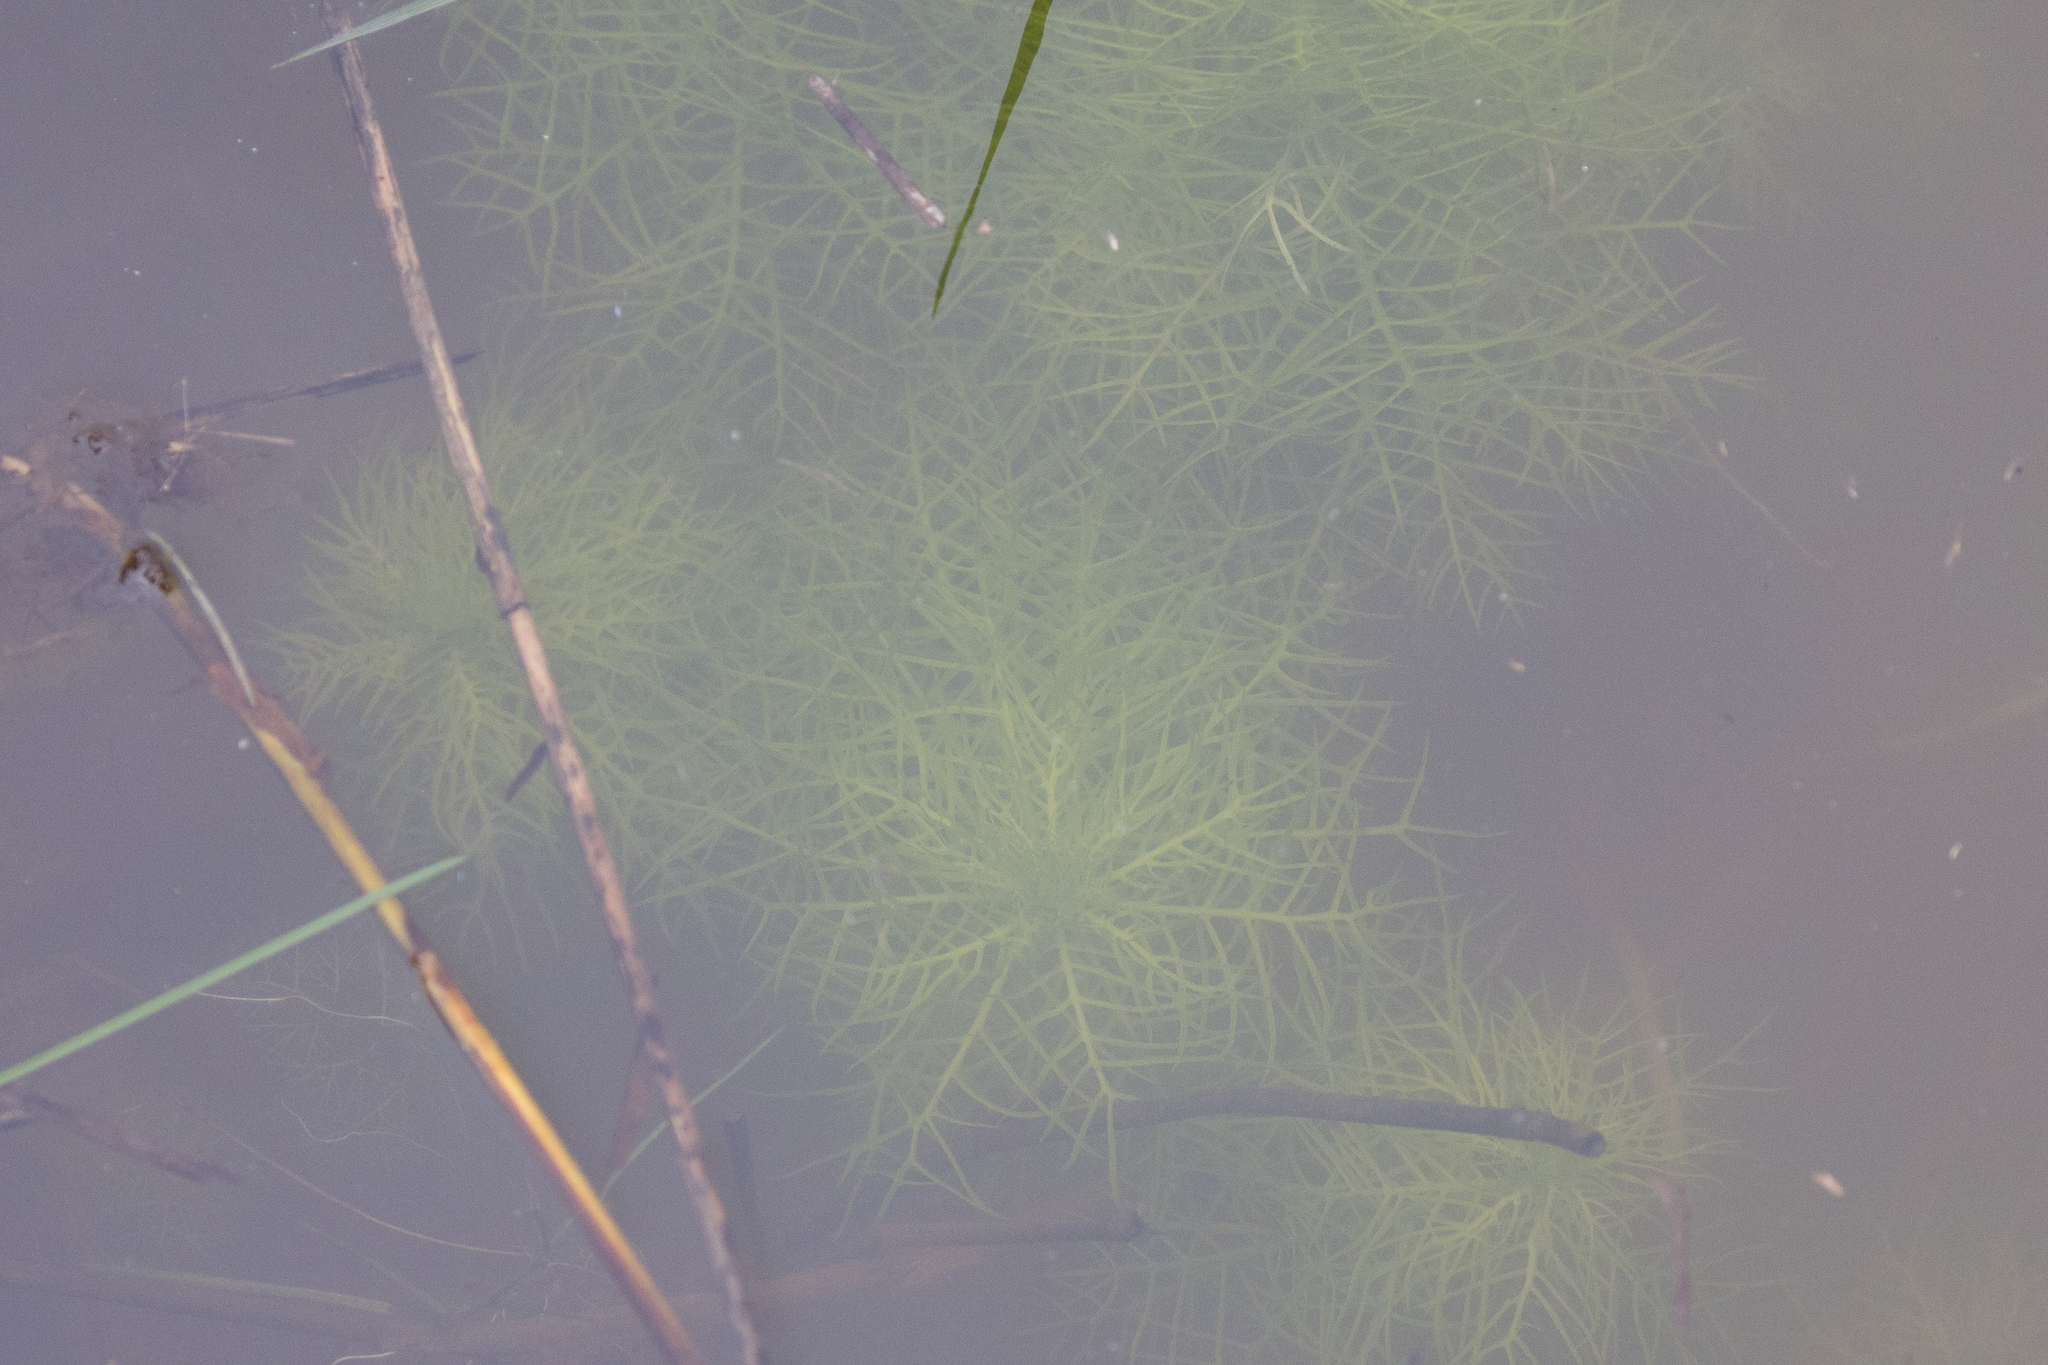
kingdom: Plantae
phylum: Tracheophyta
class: Magnoliopsida
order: Ericales
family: Primulaceae
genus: Hottonia
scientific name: Hottonia palustris
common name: Water-violet
